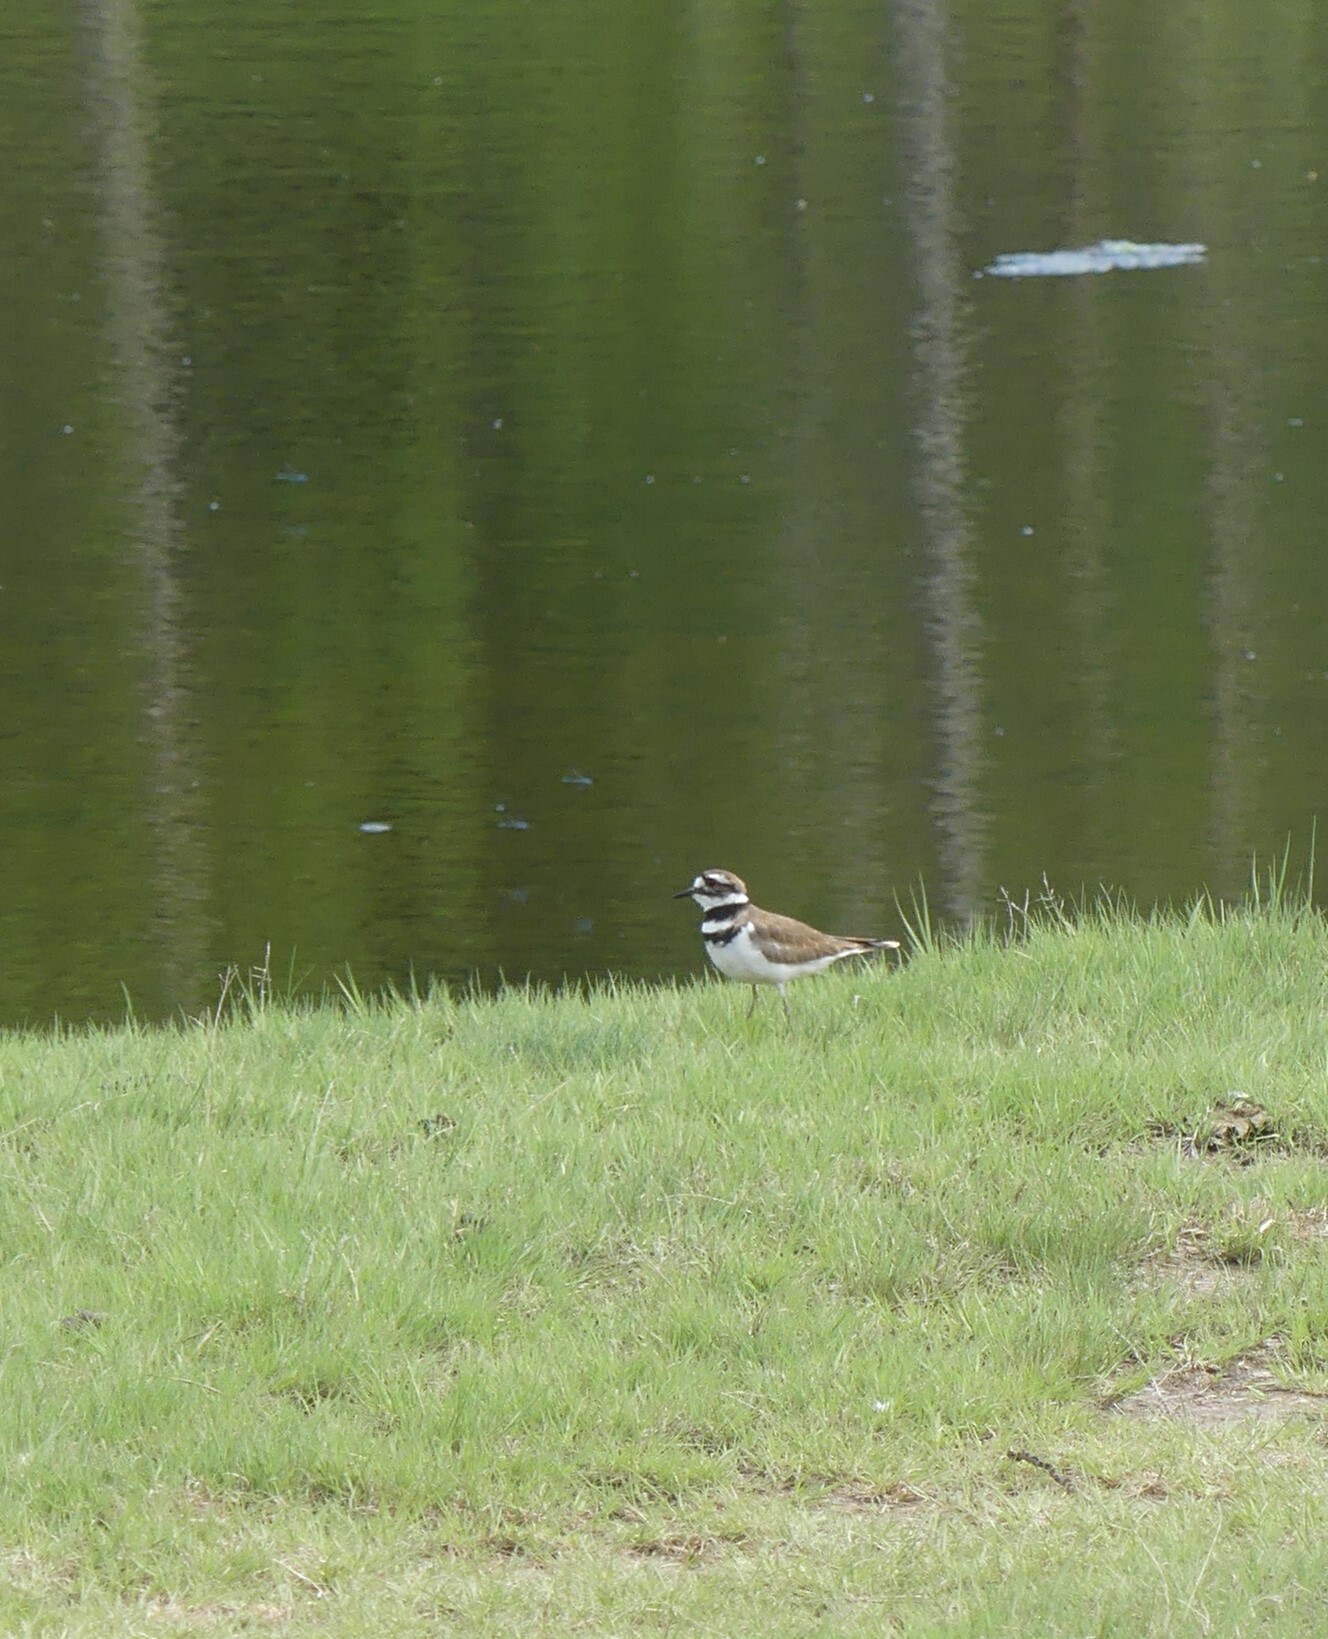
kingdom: Animalia
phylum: Chordata
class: Aves
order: Charadriiformes
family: Charadriidae
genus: Charadrius
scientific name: Charadrius vociferus
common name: Killdeer
